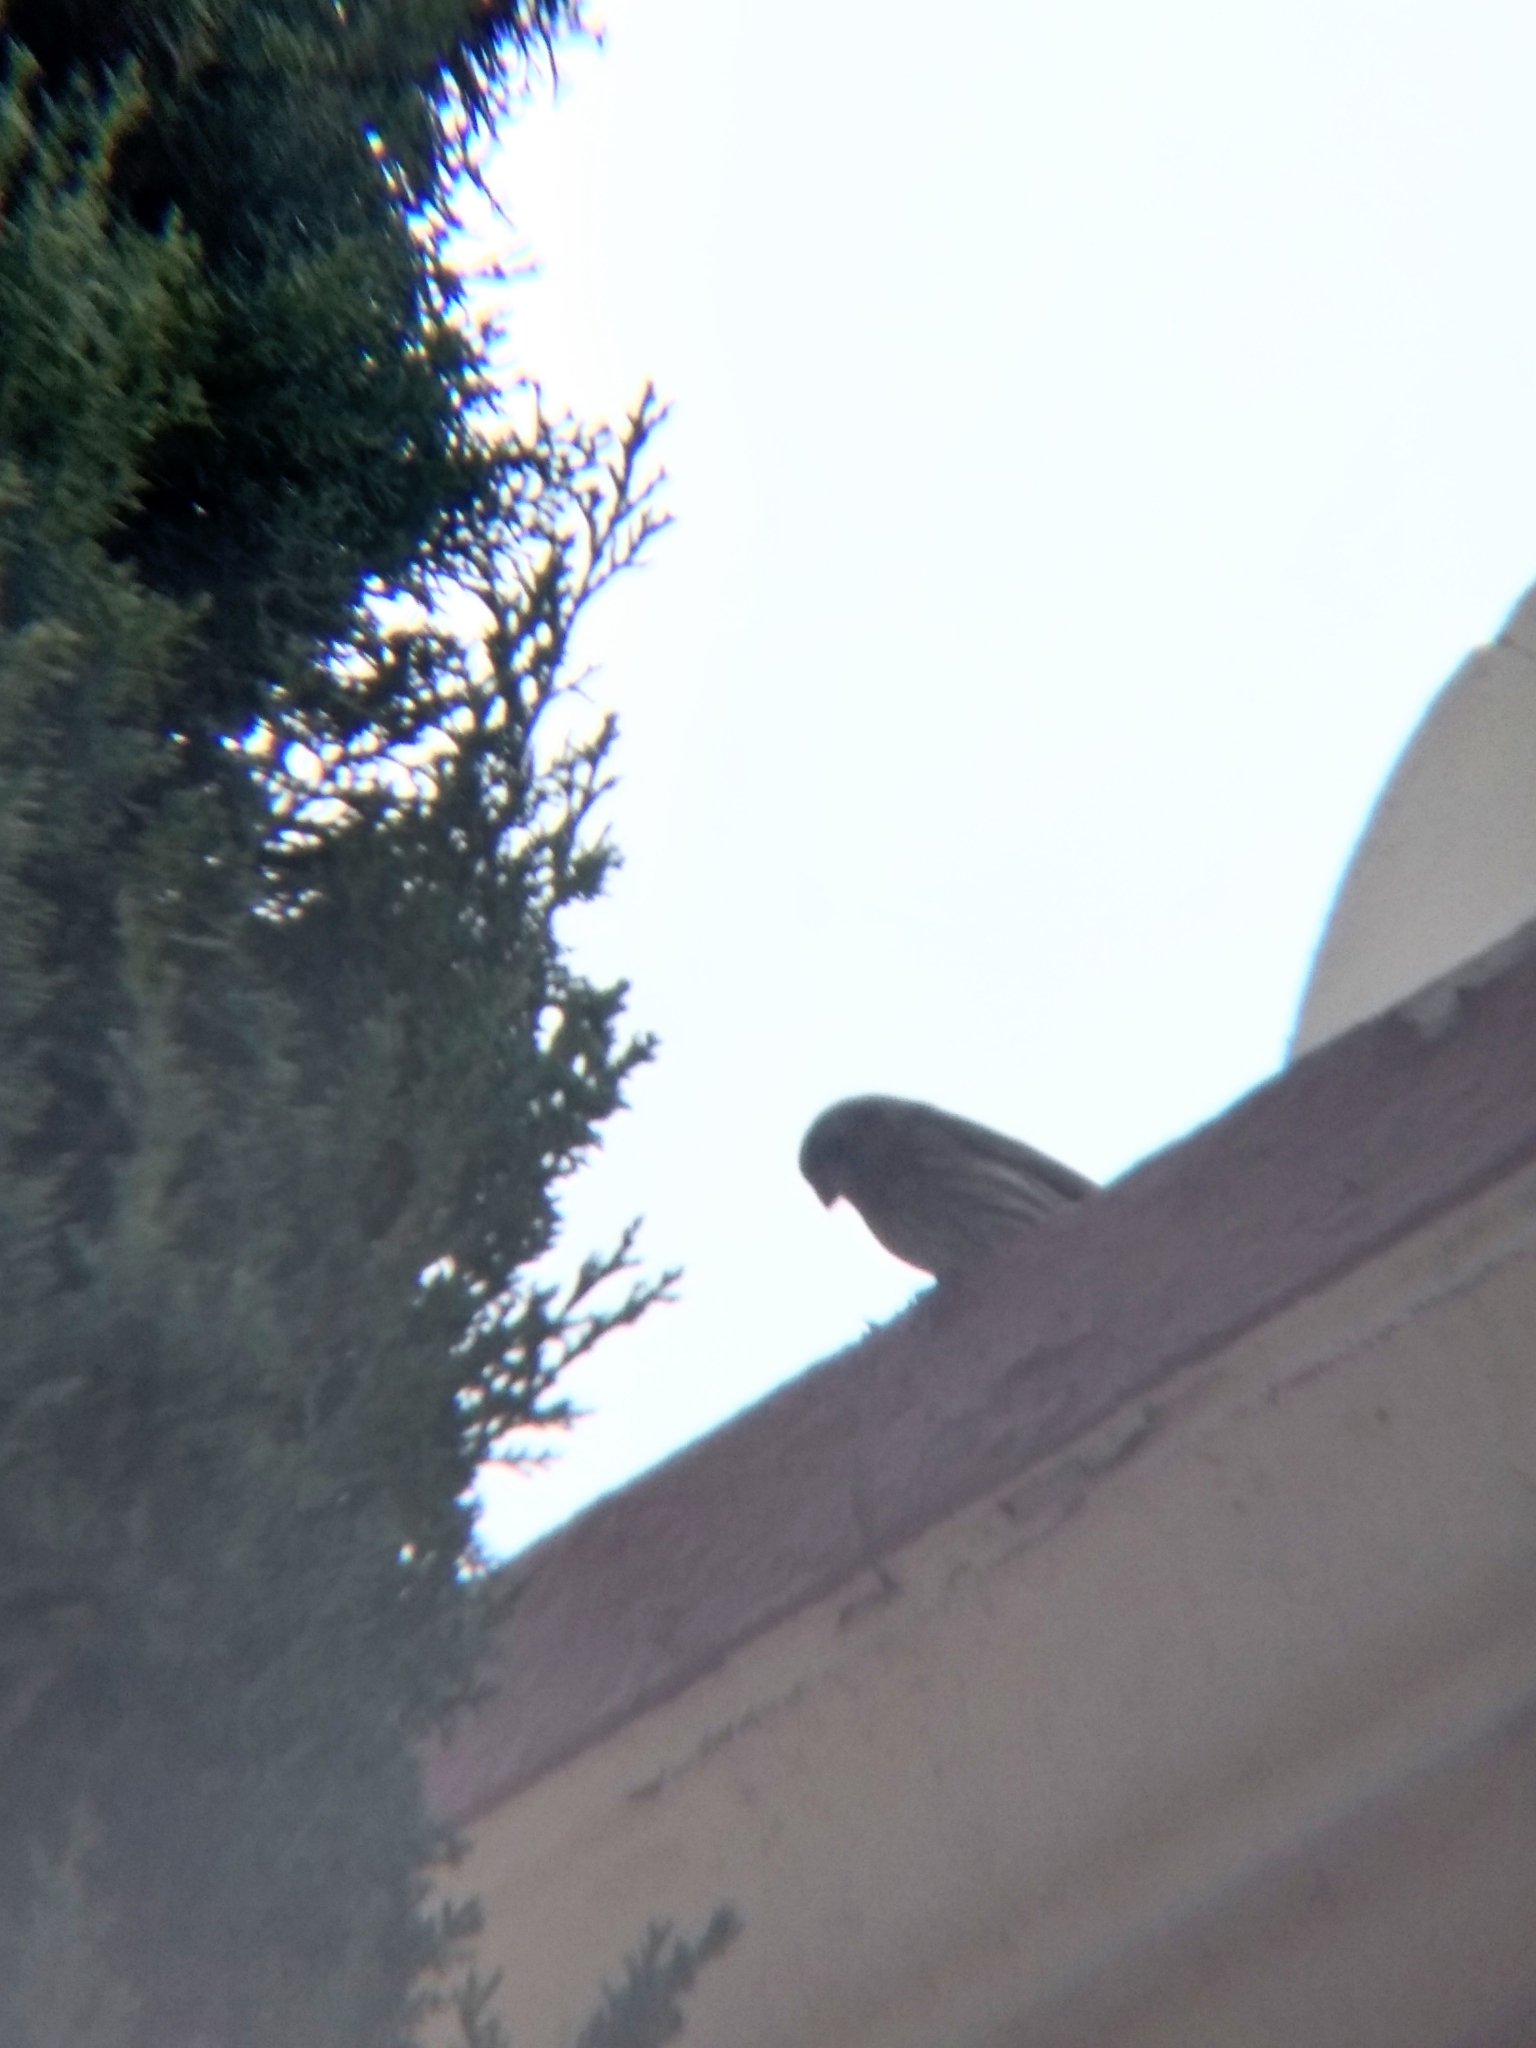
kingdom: Animalia
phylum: Chordata
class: Aves
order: Passeriformes
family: Fringillidae
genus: Haemorhous
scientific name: Haemorhous mexicanus
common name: House finch
